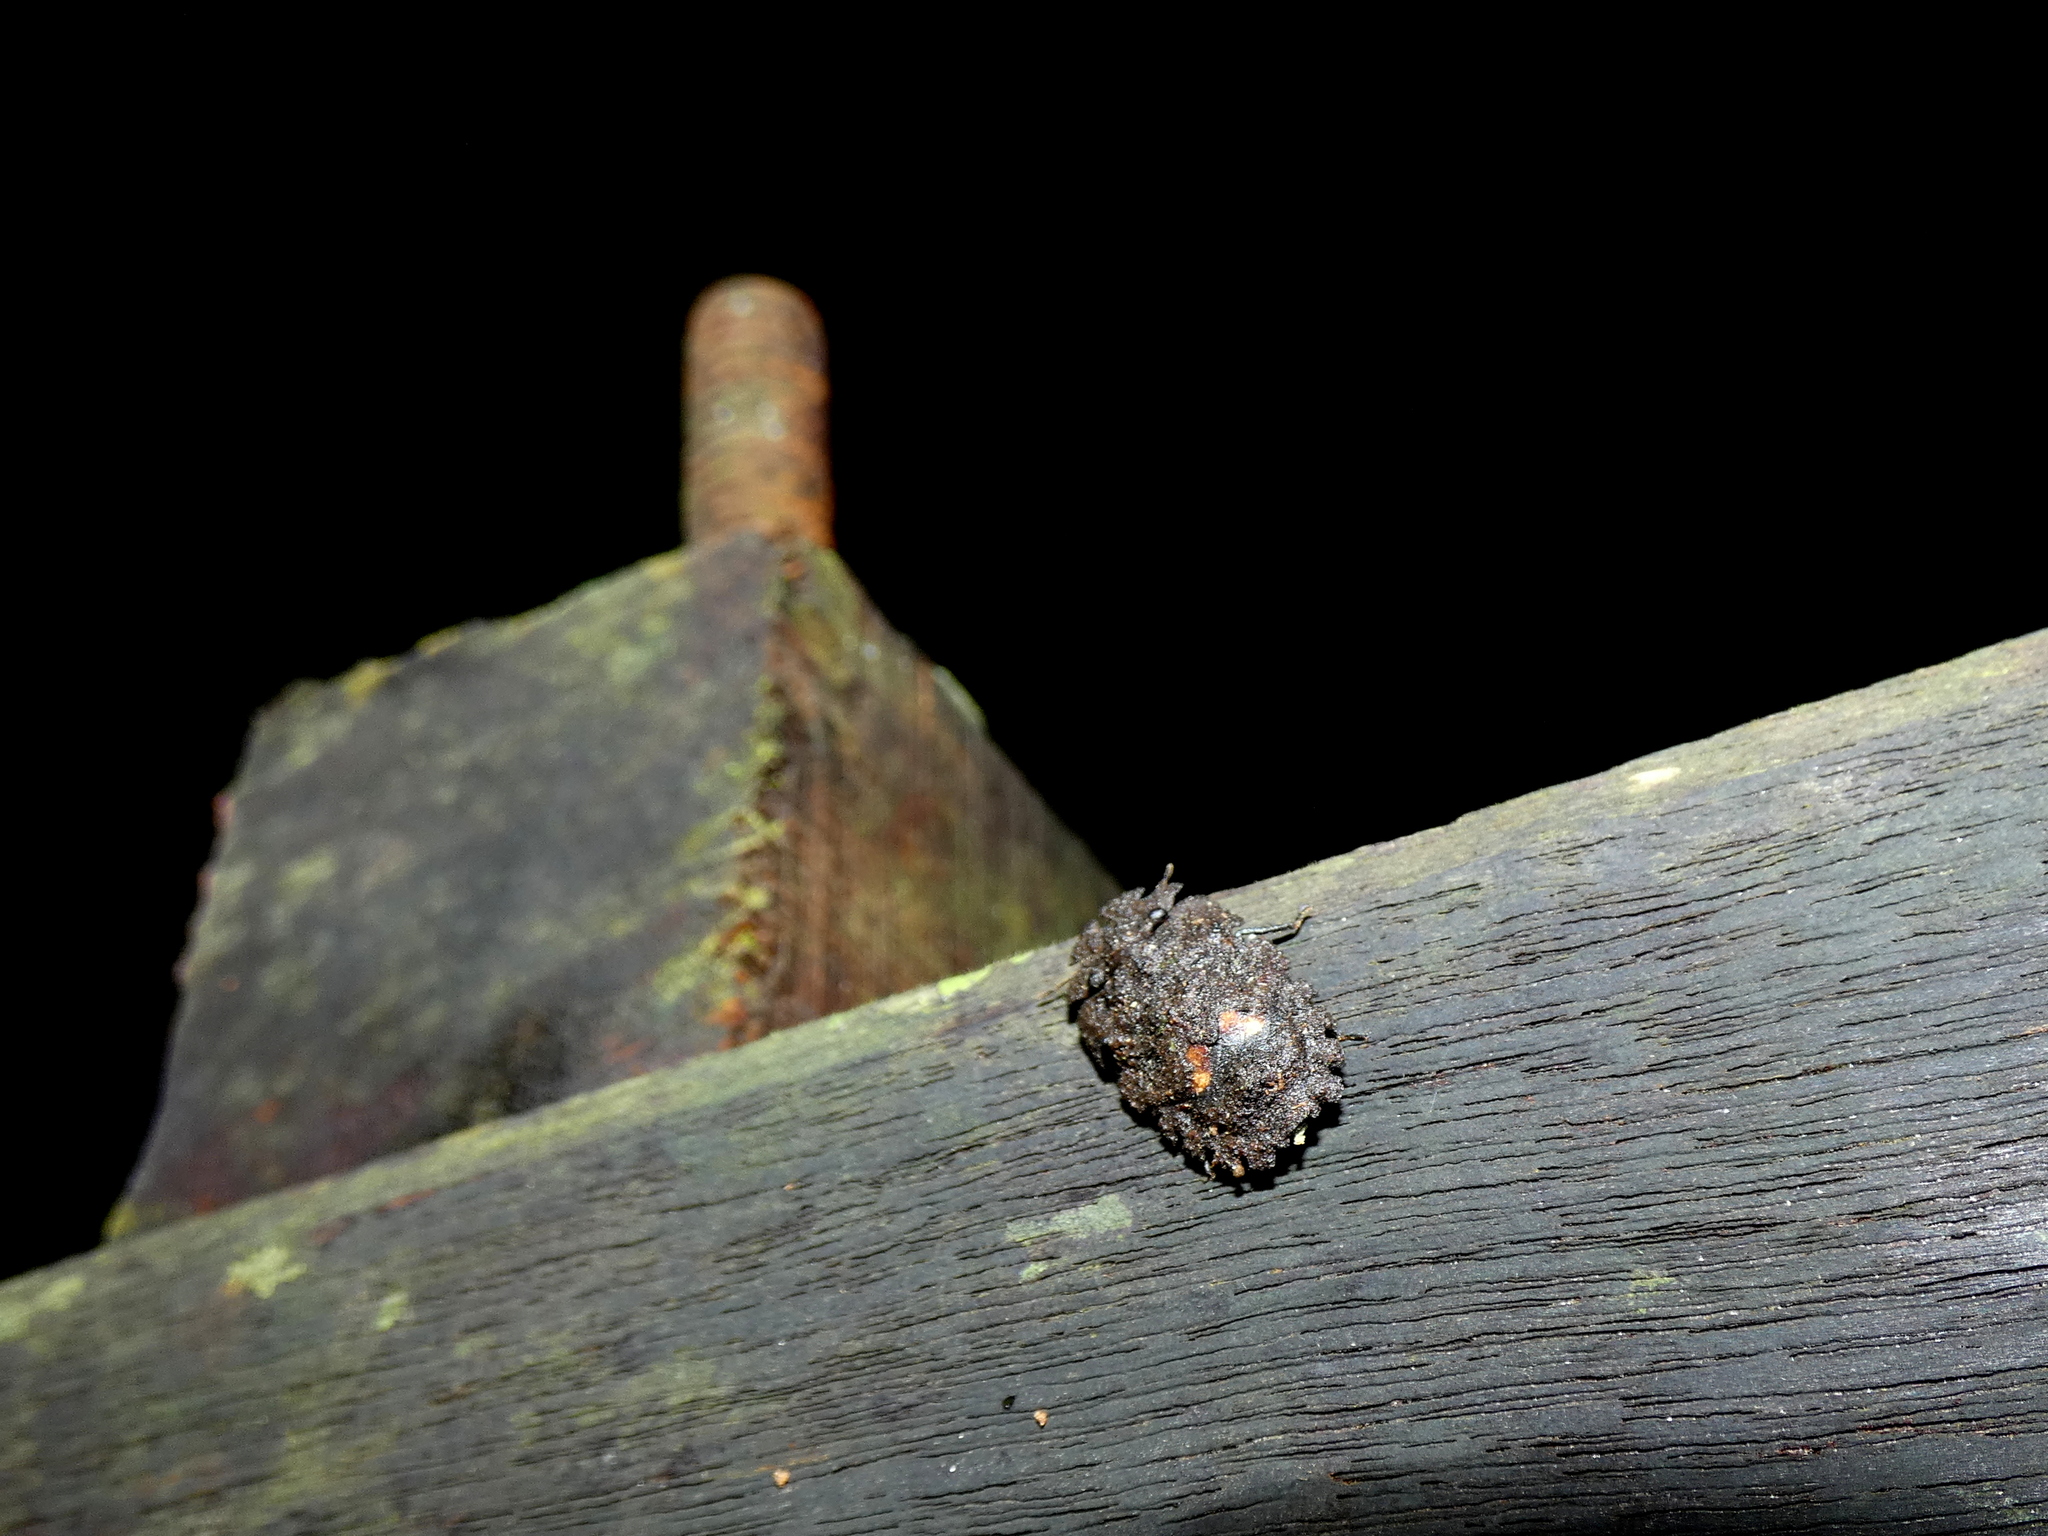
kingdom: Animalia
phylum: Arthropoda
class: Insecta
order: Hemiptera
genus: Serbana
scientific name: Serbana
